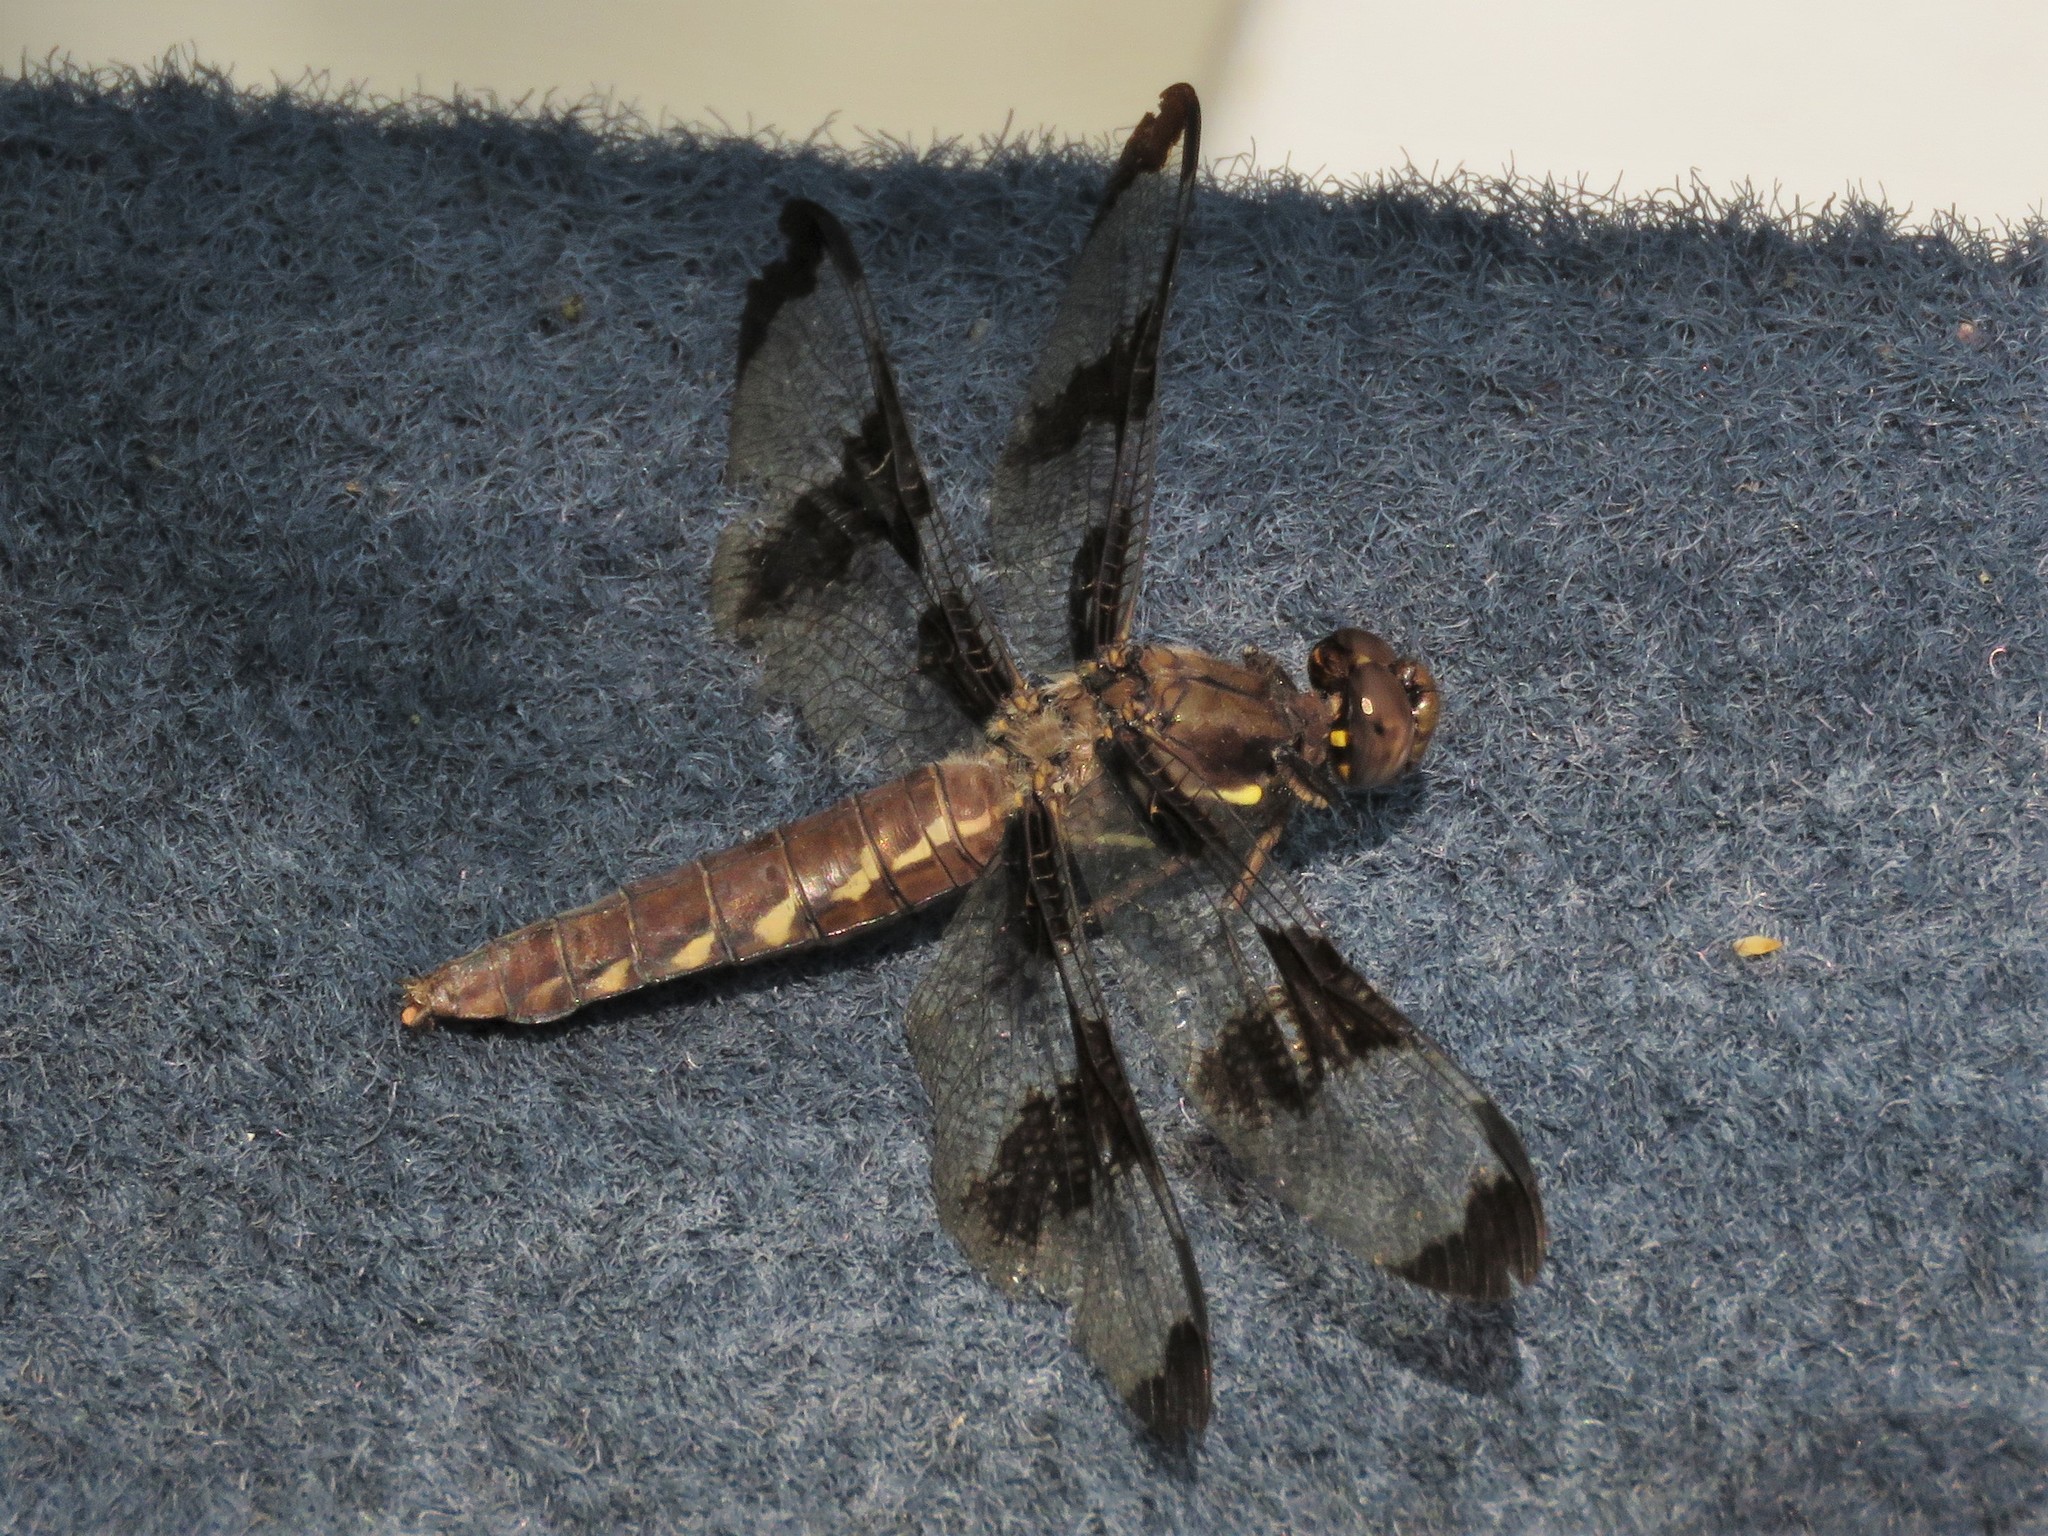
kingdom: Animalia
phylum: Arthropoda
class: Insecta
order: Odonata
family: Libellulidae
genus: Plathemis
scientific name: Plathemis lydia
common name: Common whitetail
